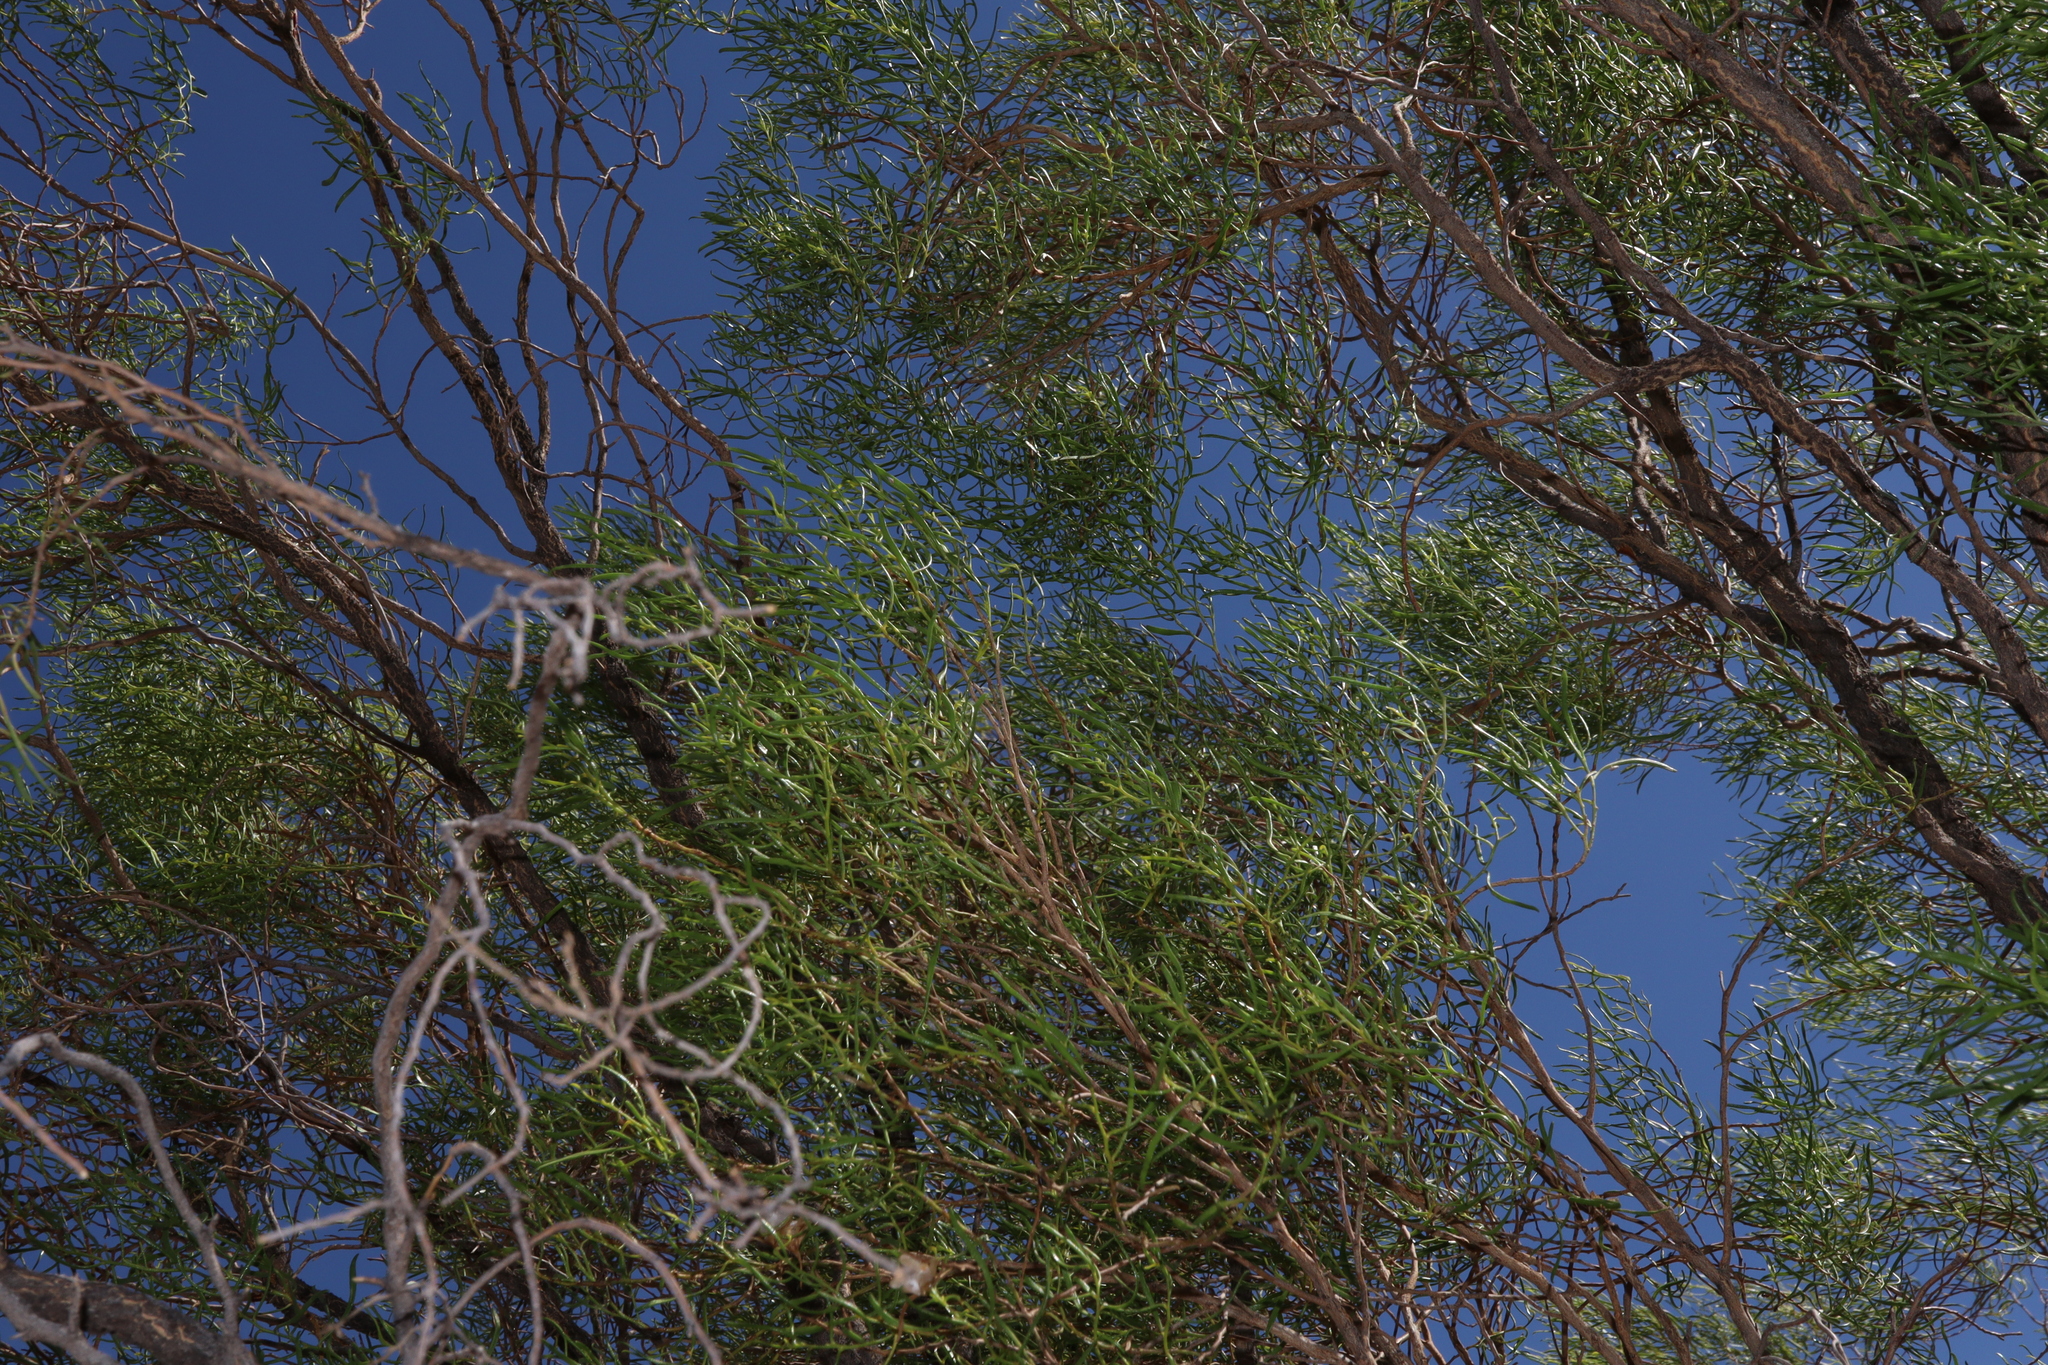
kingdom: Plantae
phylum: Tracheophyta
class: Magnoliopsida
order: Lamiales
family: Scrophulariaceae
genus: Eremophila
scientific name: Eremophila sturtii
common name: Narrow-leaf emubush
